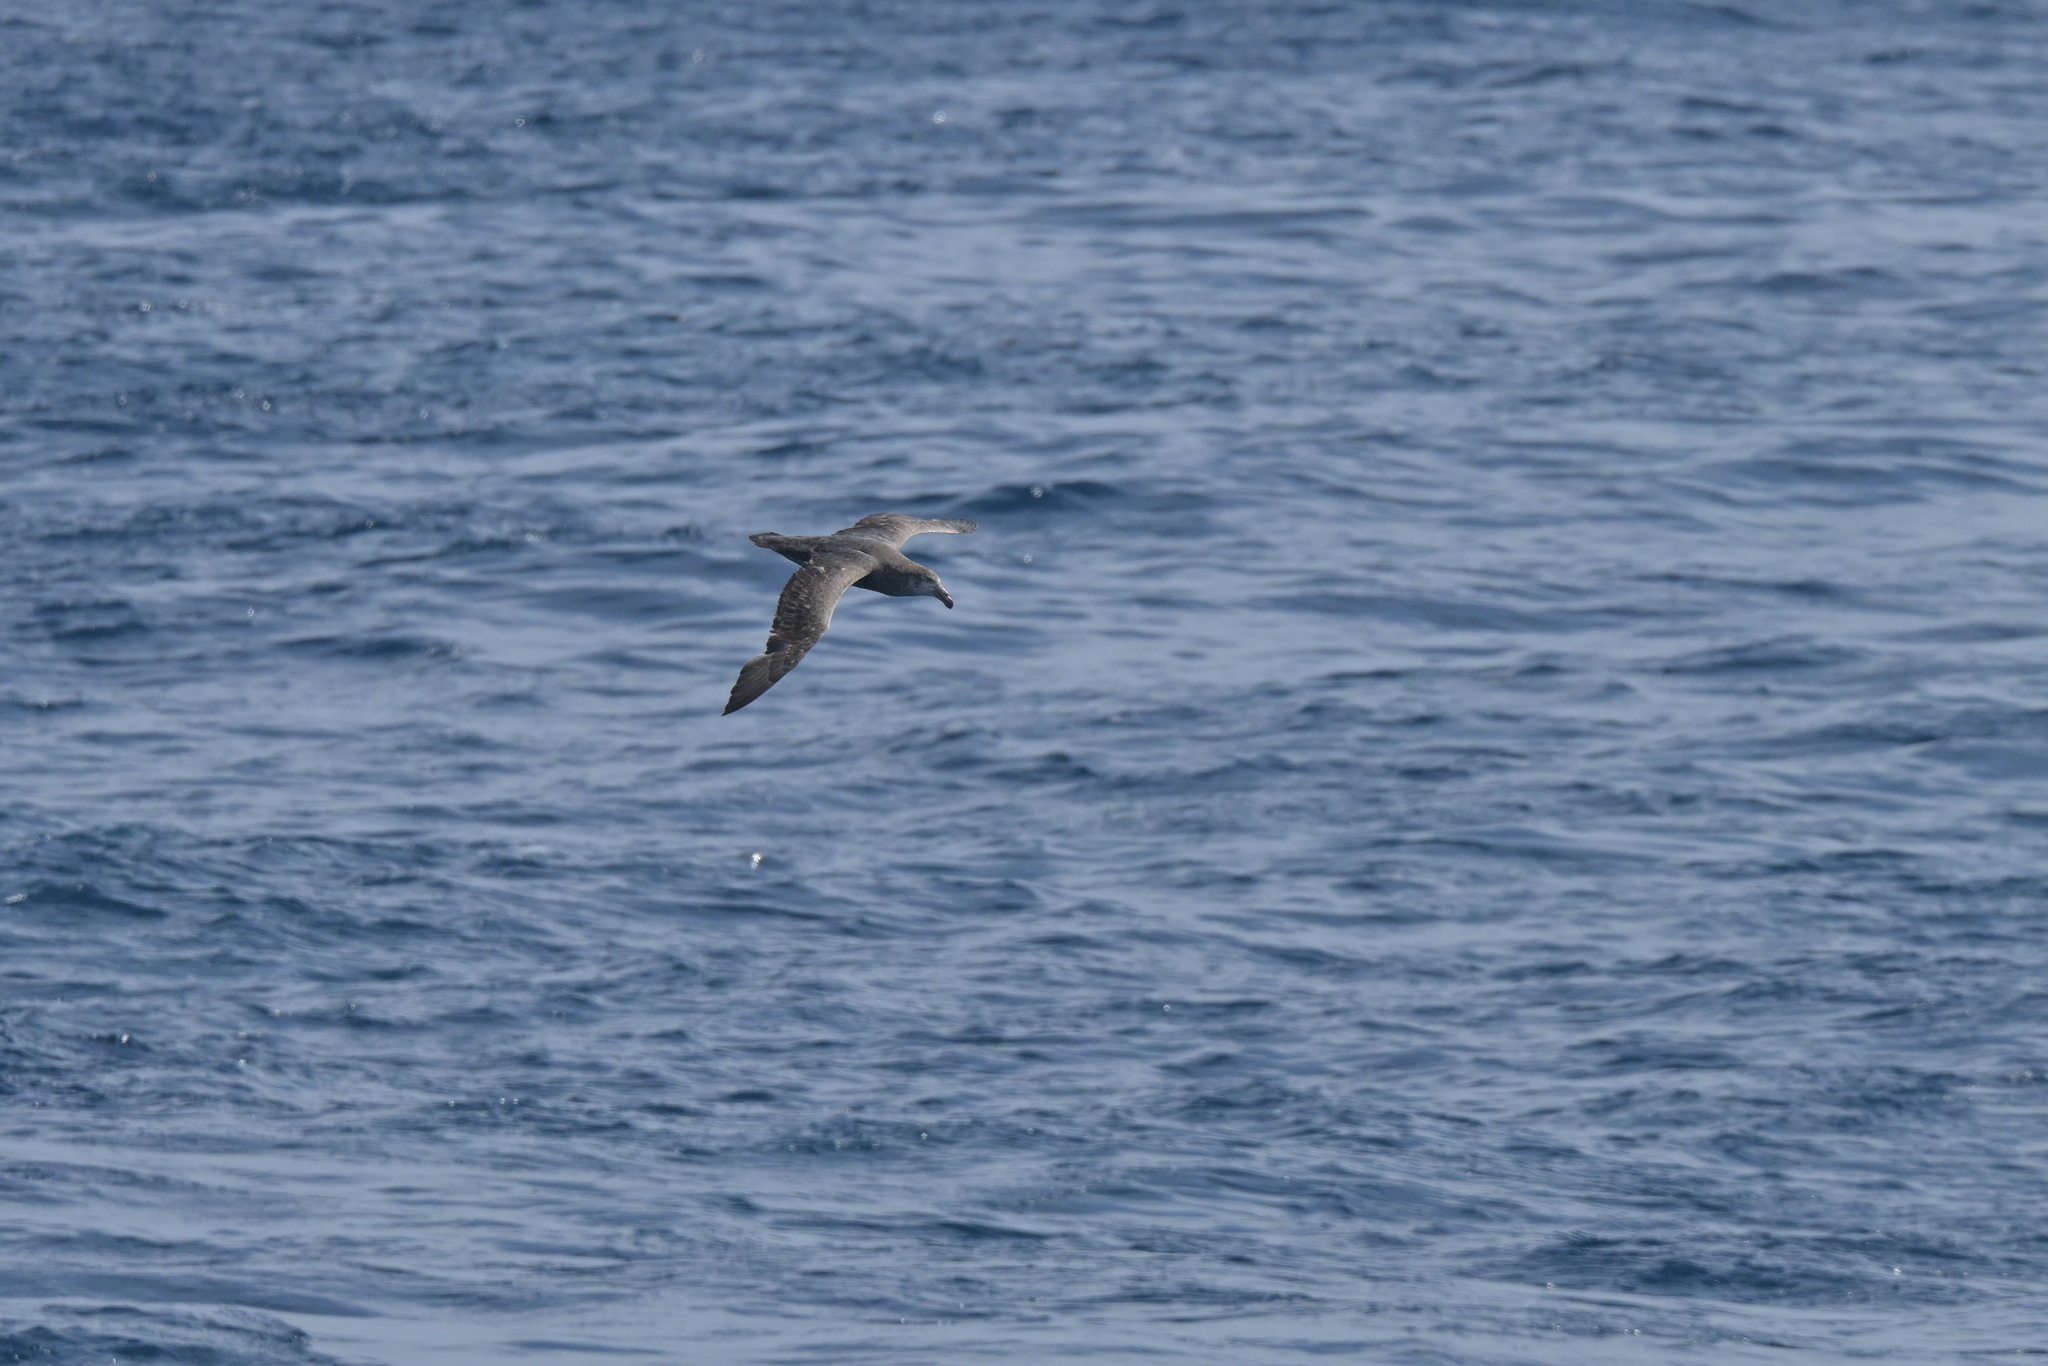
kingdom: Animalia
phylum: Chordata
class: Aves
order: Procellariiformes
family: Procellariidae
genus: Macronectes
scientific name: Macronectes halli
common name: Northern giant petrel
